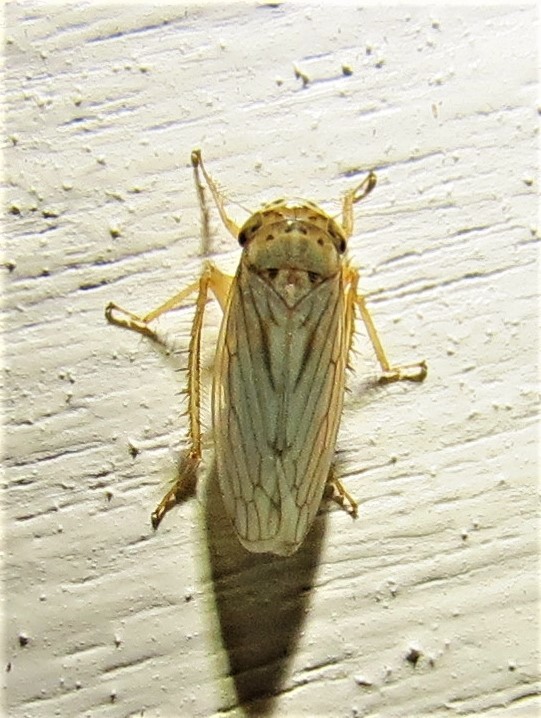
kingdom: Animalia
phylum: Arthropoda
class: Insecta
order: Hemiptera
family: Cicadellidae
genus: Exitianus
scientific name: Exitianus exitiosus
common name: Gray lawn leafhopper
